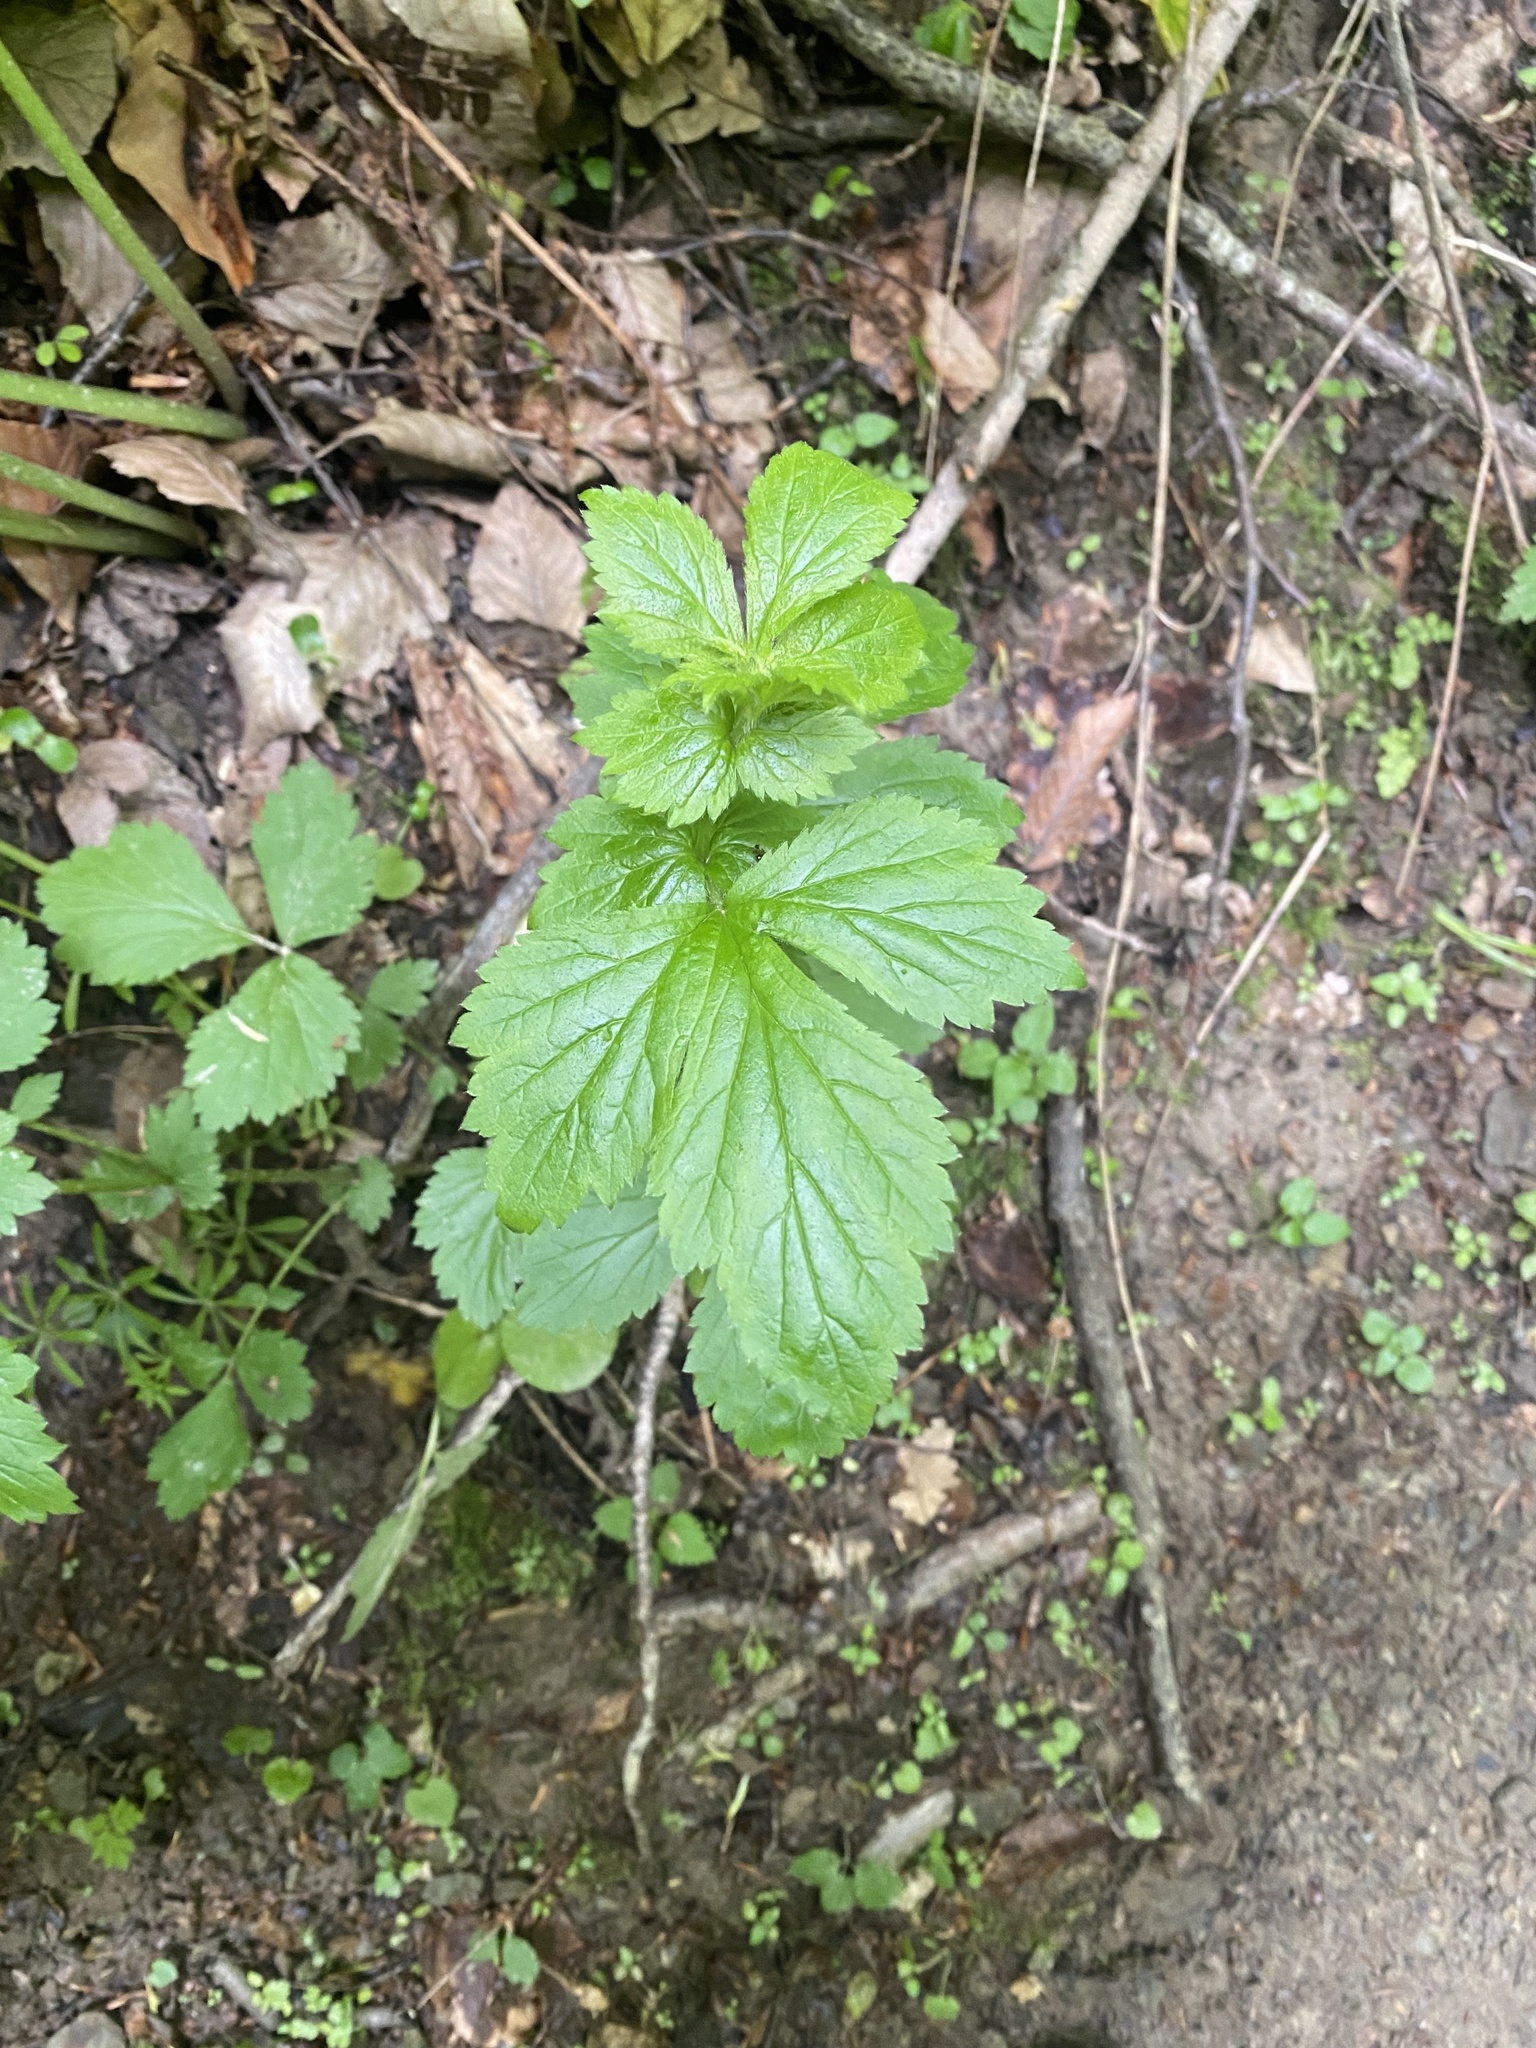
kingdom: Plantae
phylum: Tracheophyta
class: Magnoliopsida
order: Rosales
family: Rosaceae
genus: Geum
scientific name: Geum urbanum
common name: Wood avens
